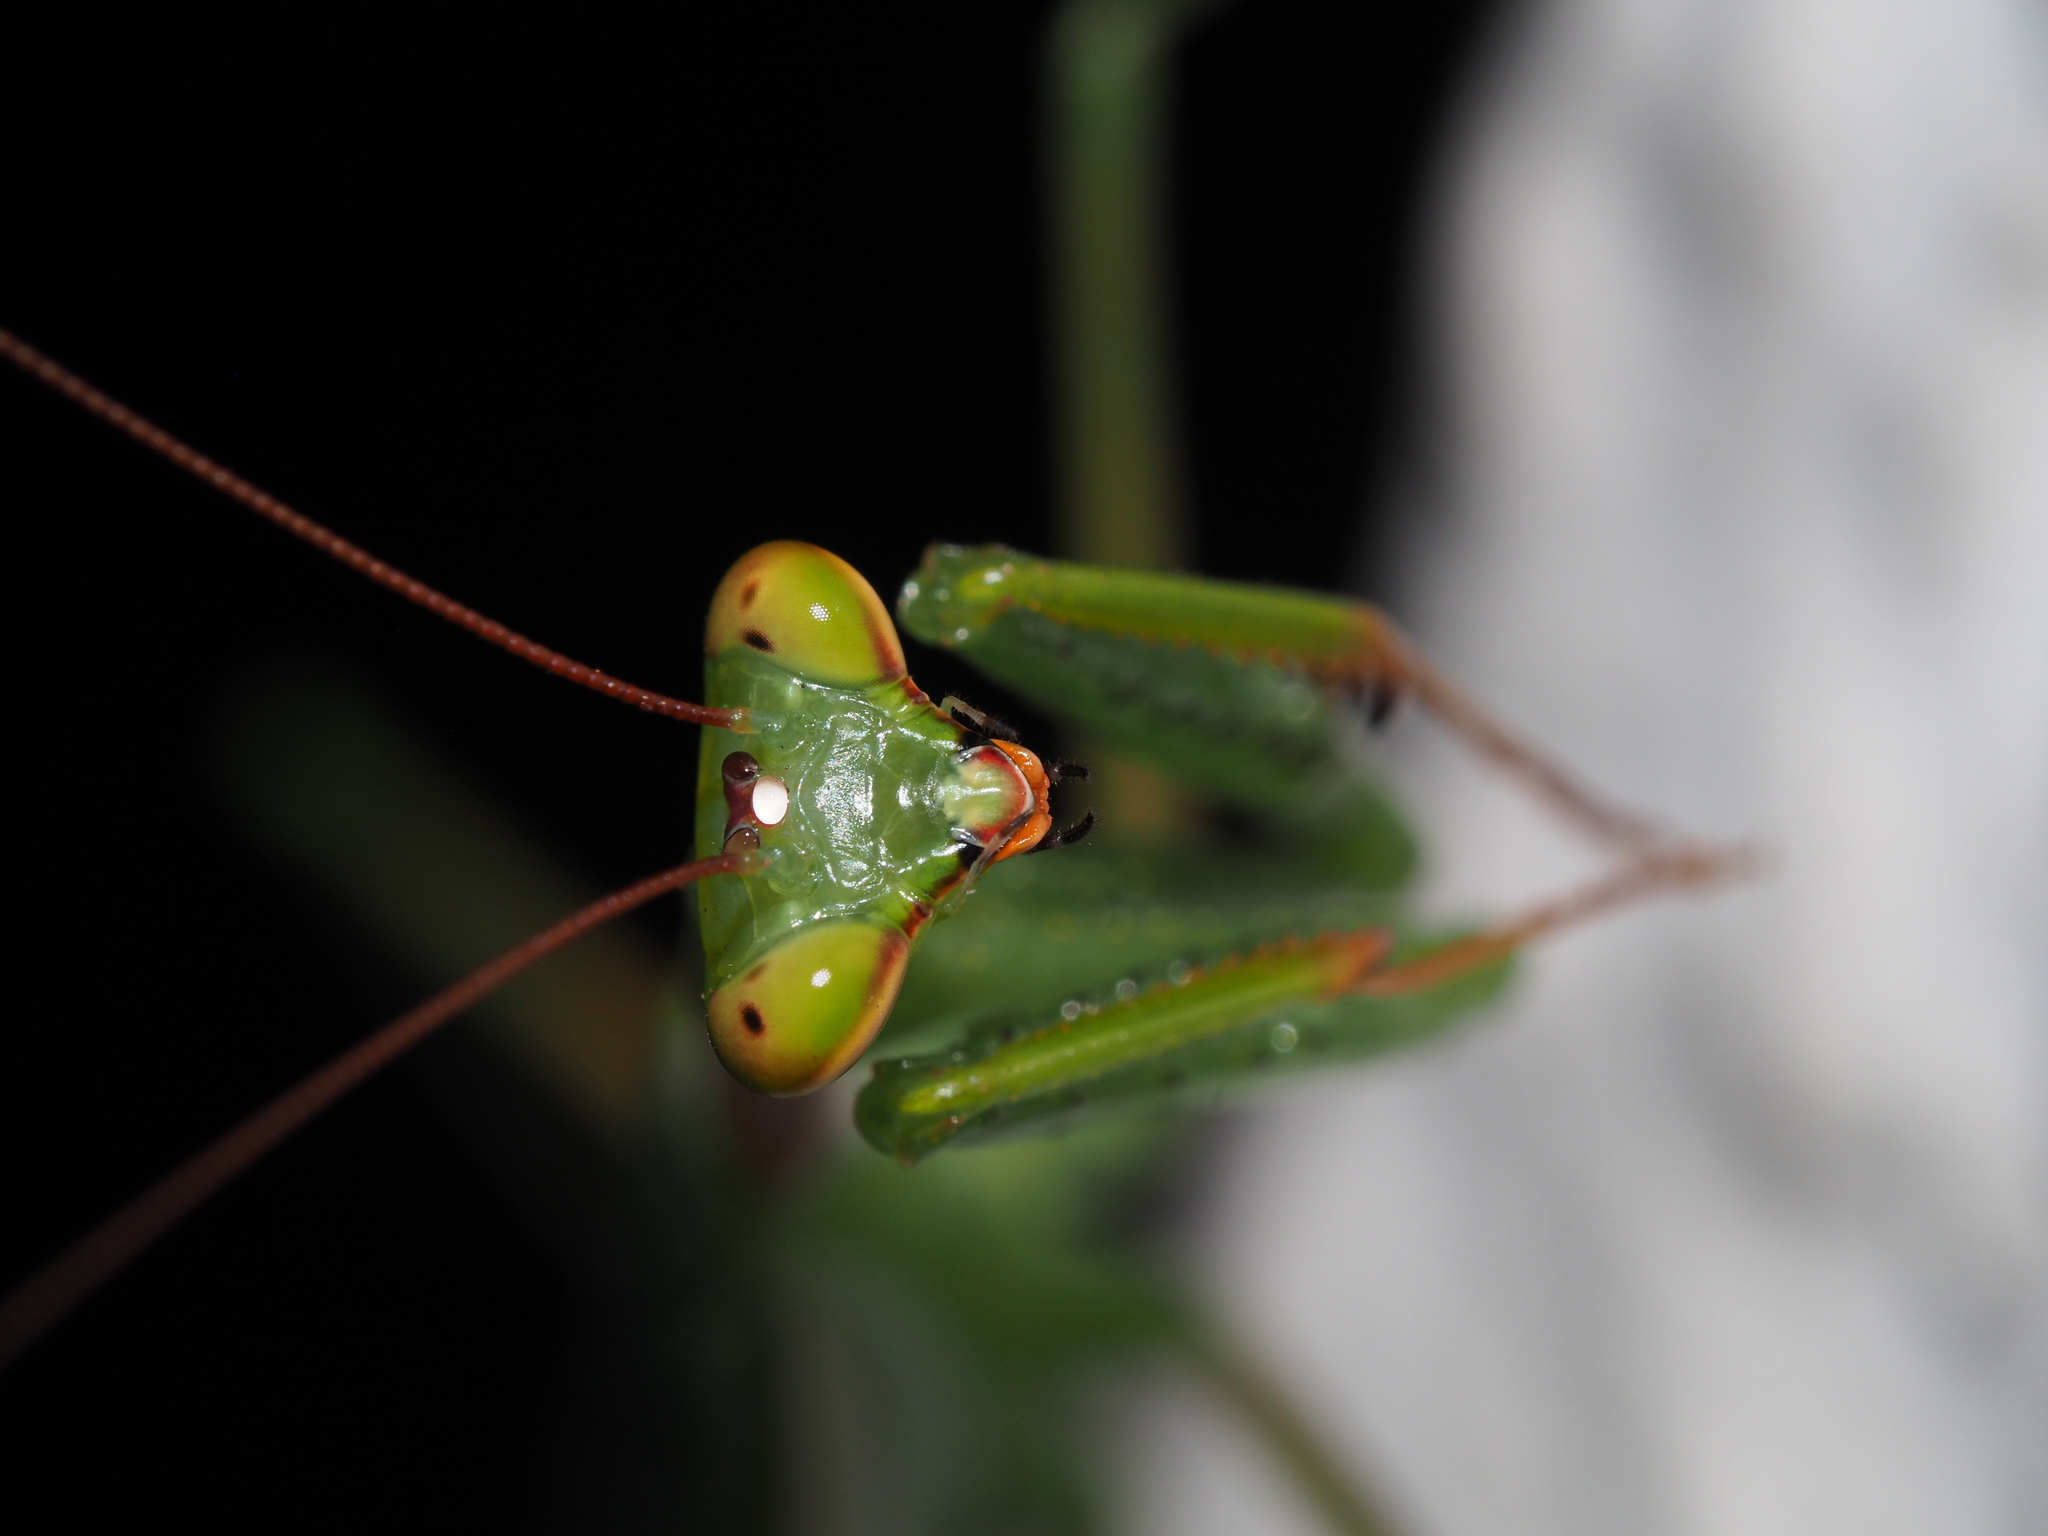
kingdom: Animalia
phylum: Arthropoda
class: Insecta
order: Mantodea
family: Miomantidae
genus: Miomantis
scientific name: Miomantis caffra
